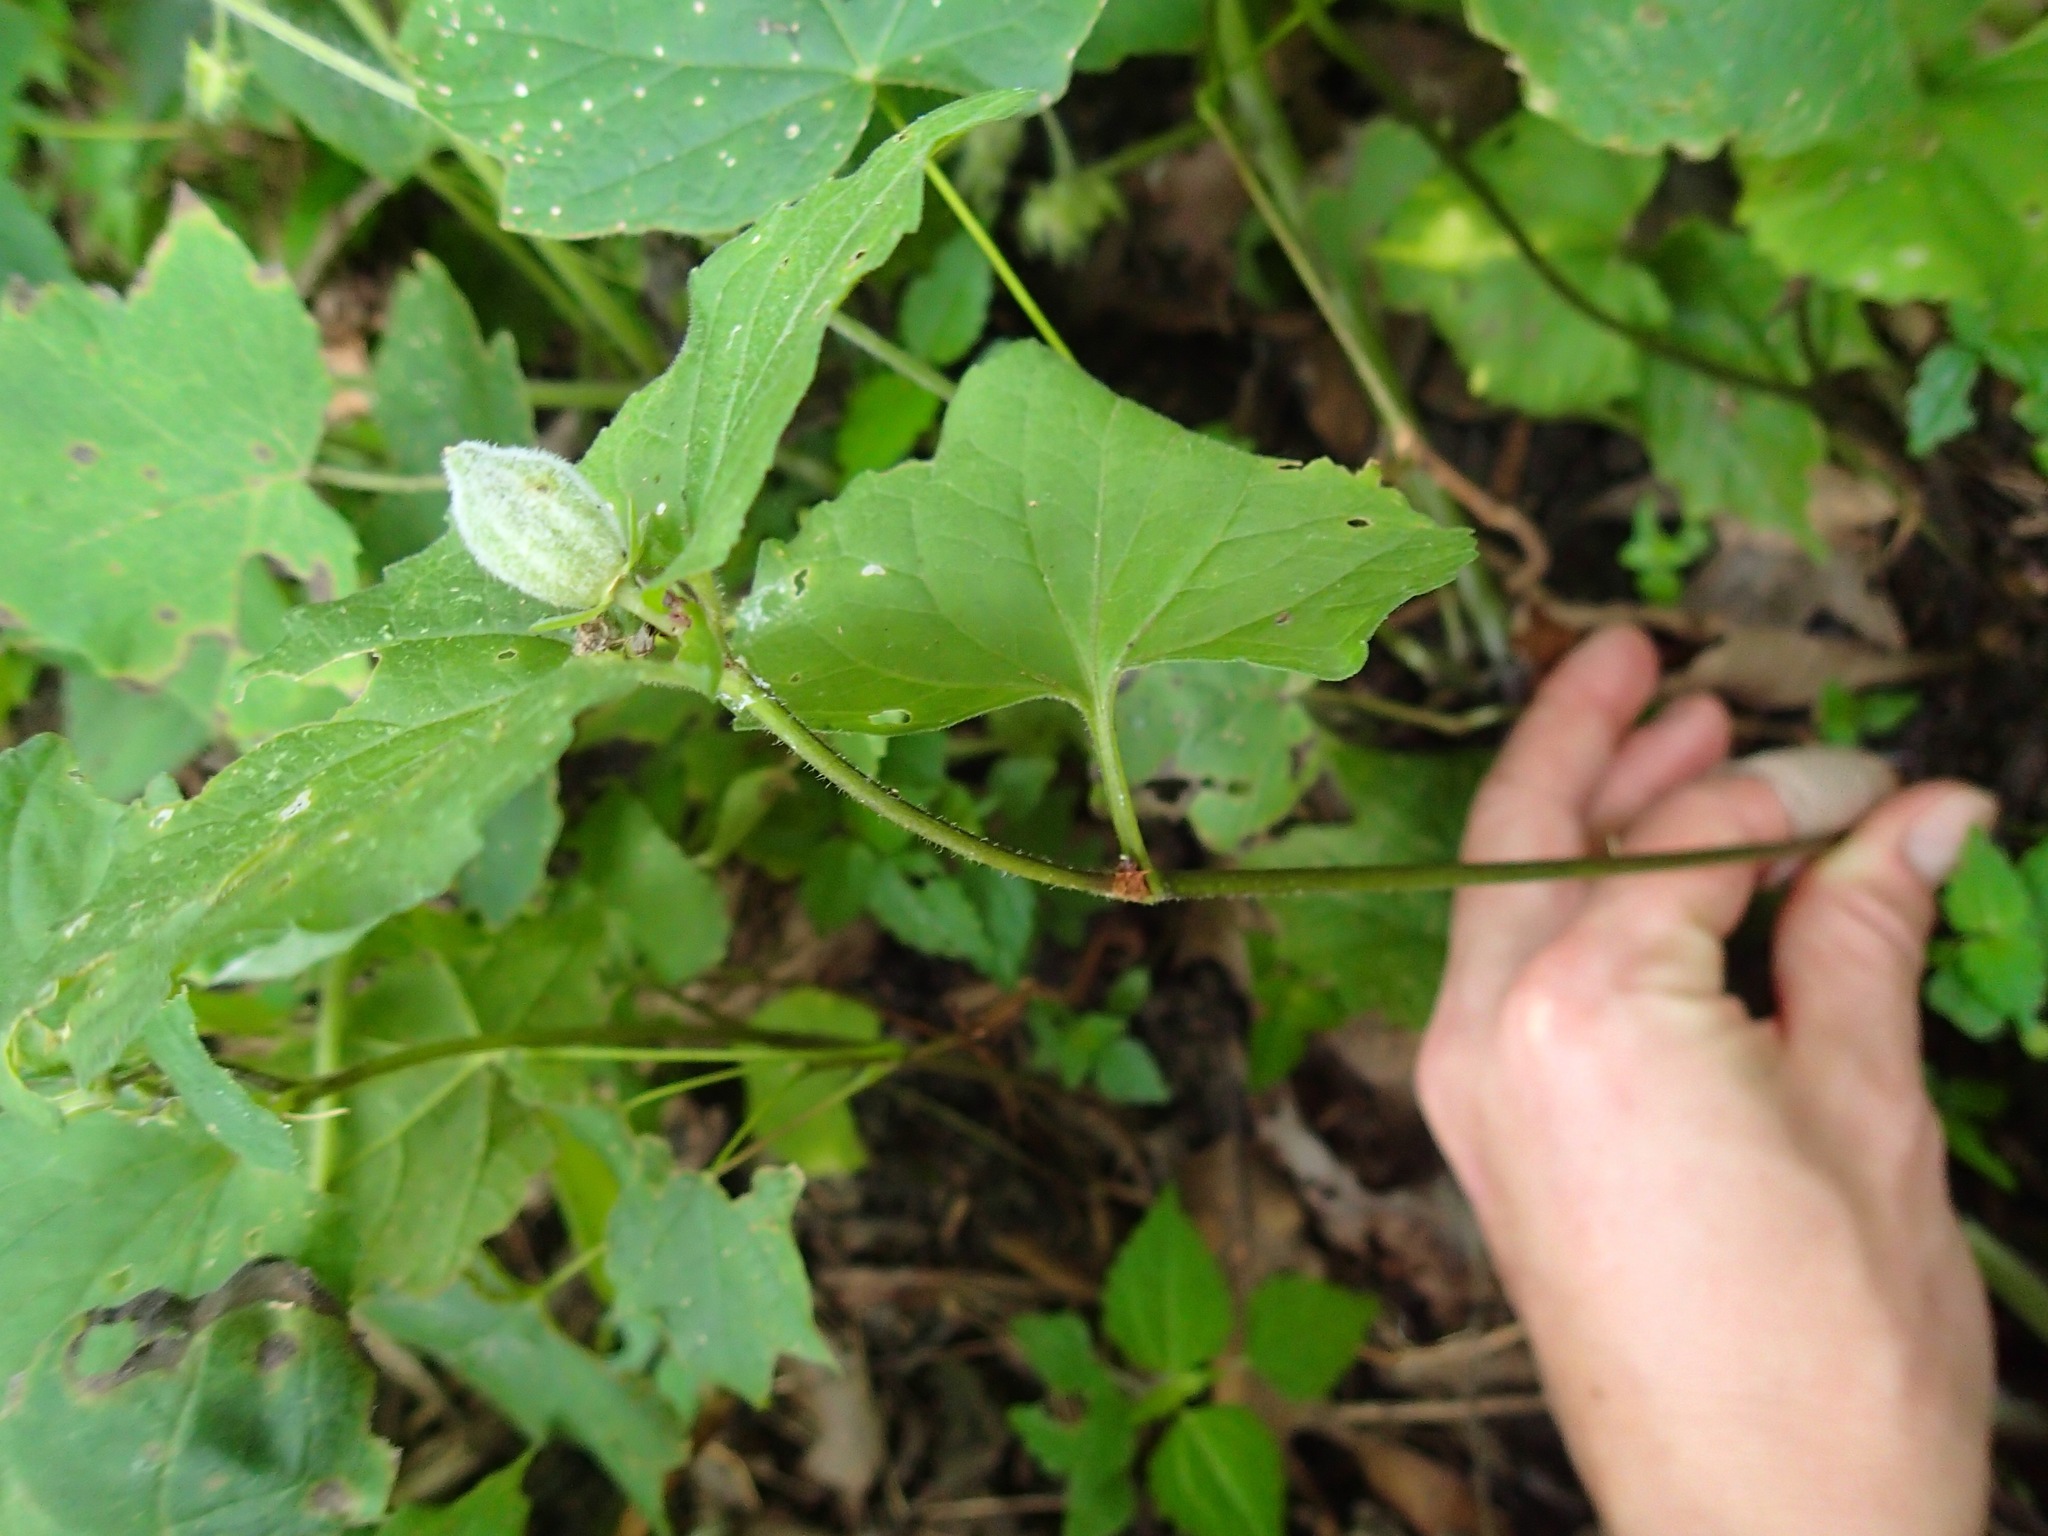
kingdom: Plantae
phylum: Tracheophyta
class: Magnoliopsida
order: Malpighiales
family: Violaceae
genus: Viola
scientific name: Viola eriocarpa
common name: Smooth yellow violet
